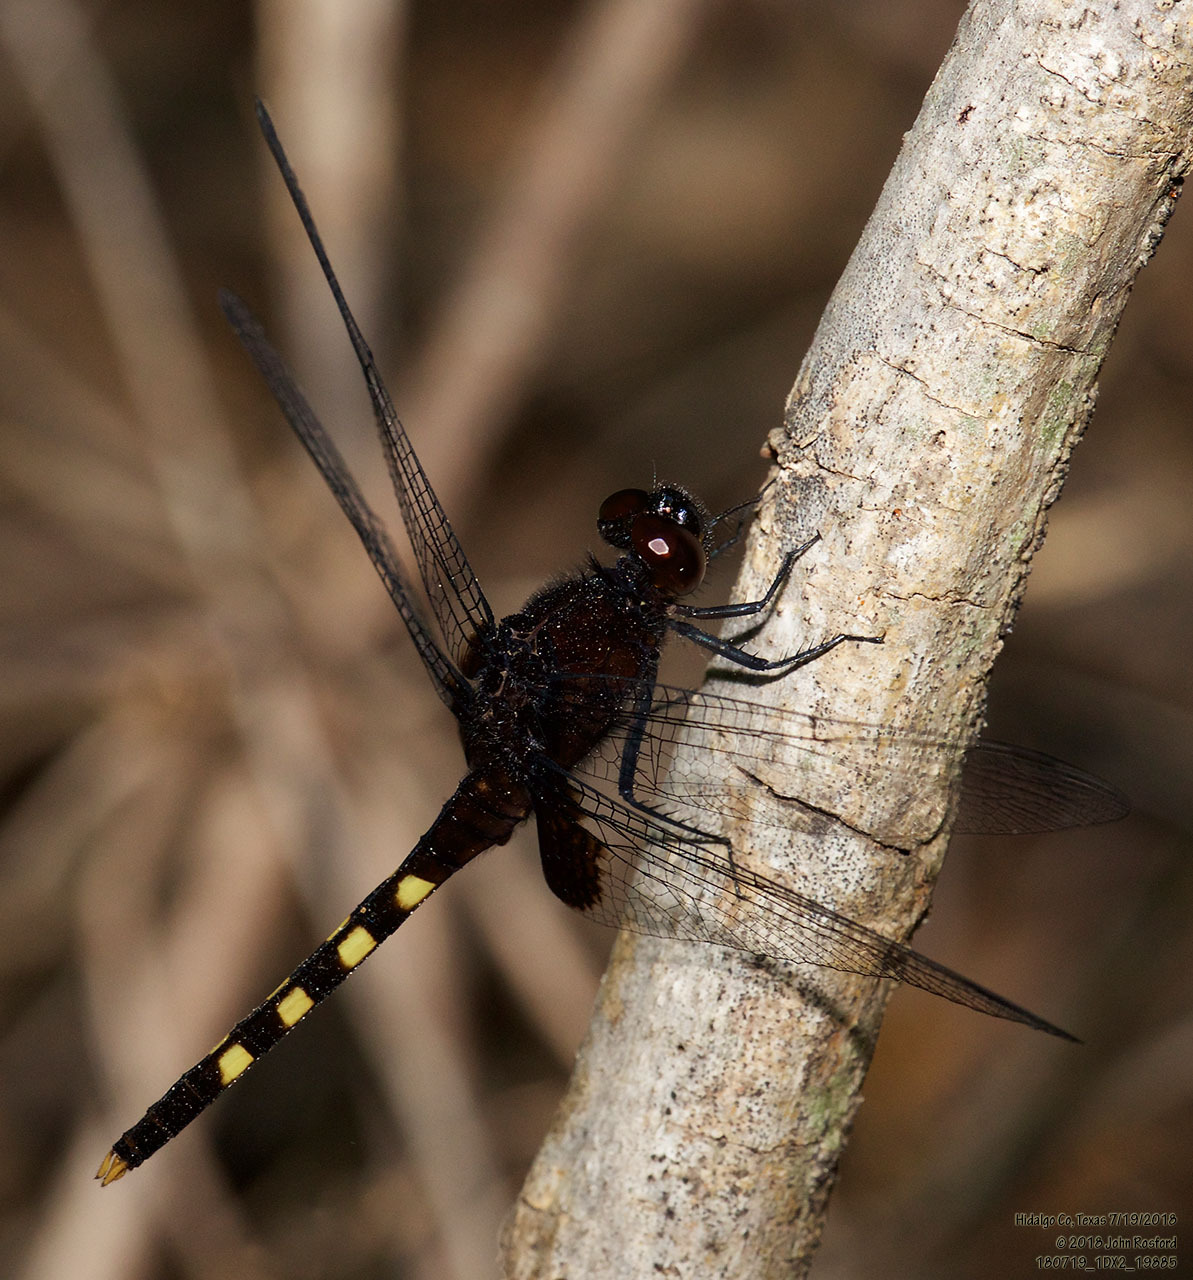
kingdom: Animalia
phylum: Arthropoda
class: Insecta
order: Odonata
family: Libellulidae
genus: Erythemis
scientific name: Erythemis attala
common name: Black pondhawk
